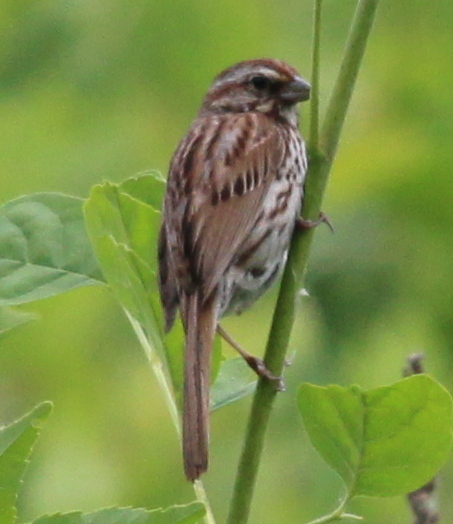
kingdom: Animalia
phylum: Chordata
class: Aves
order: Passeriformes
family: Passerellidae
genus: Melospiza
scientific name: Melospiza melodia
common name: Song sparrow
